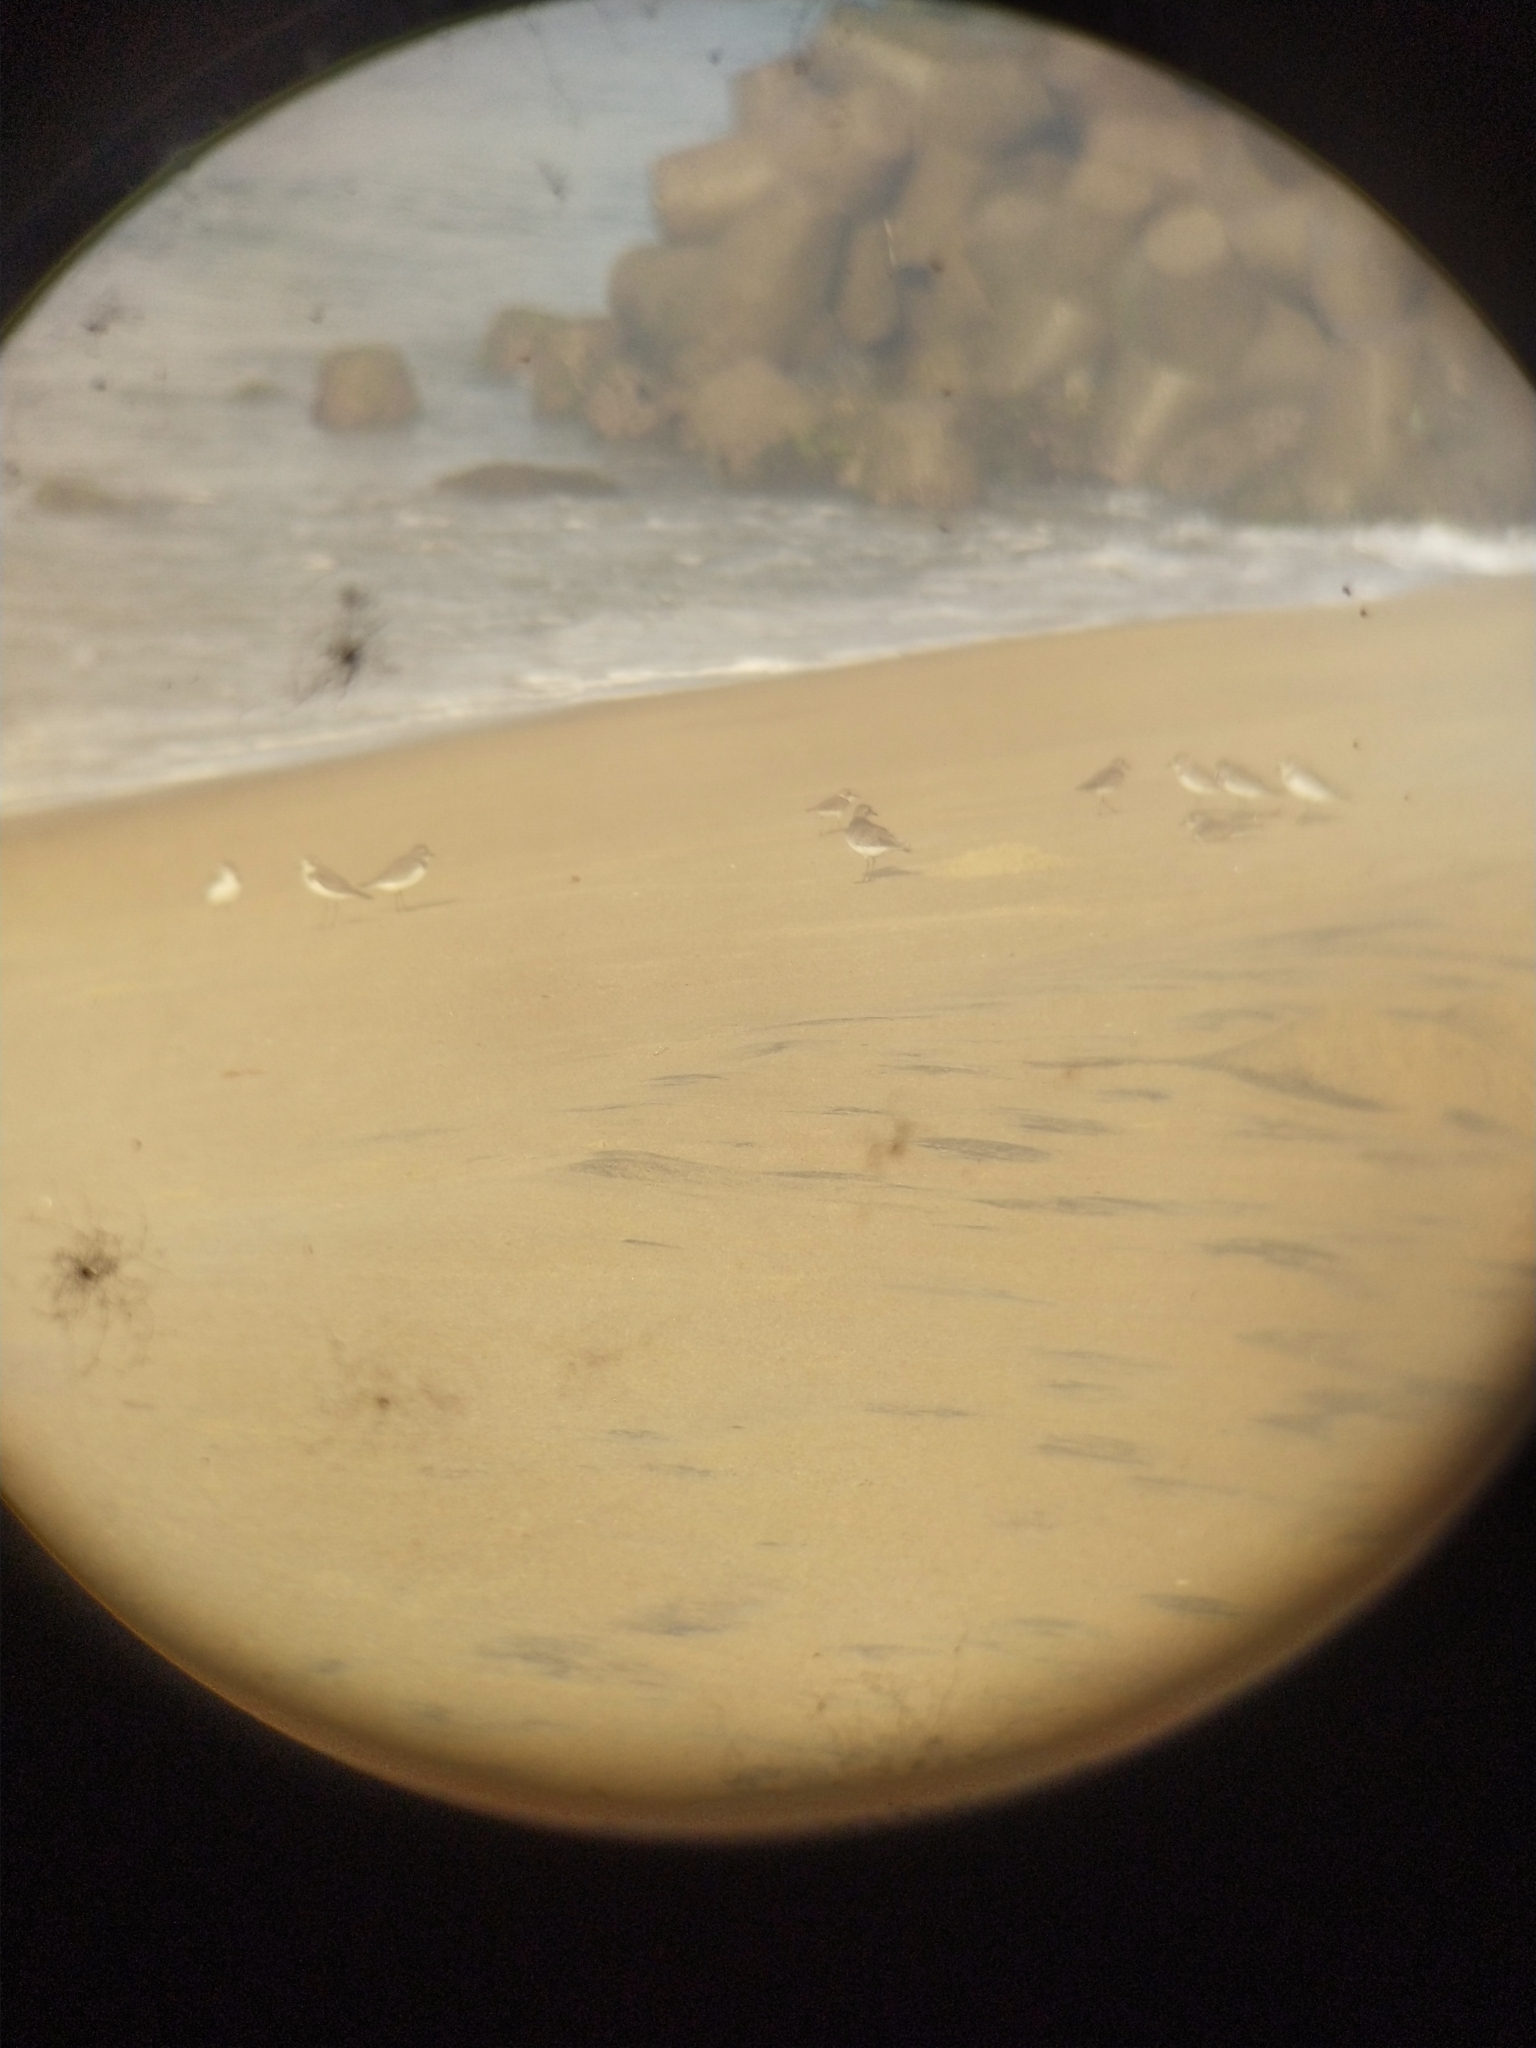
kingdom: Animalia
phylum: Chordata
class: Aves
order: Charadriiformes
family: Charadriidae
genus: Anarhynchus
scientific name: Anarhynchus
